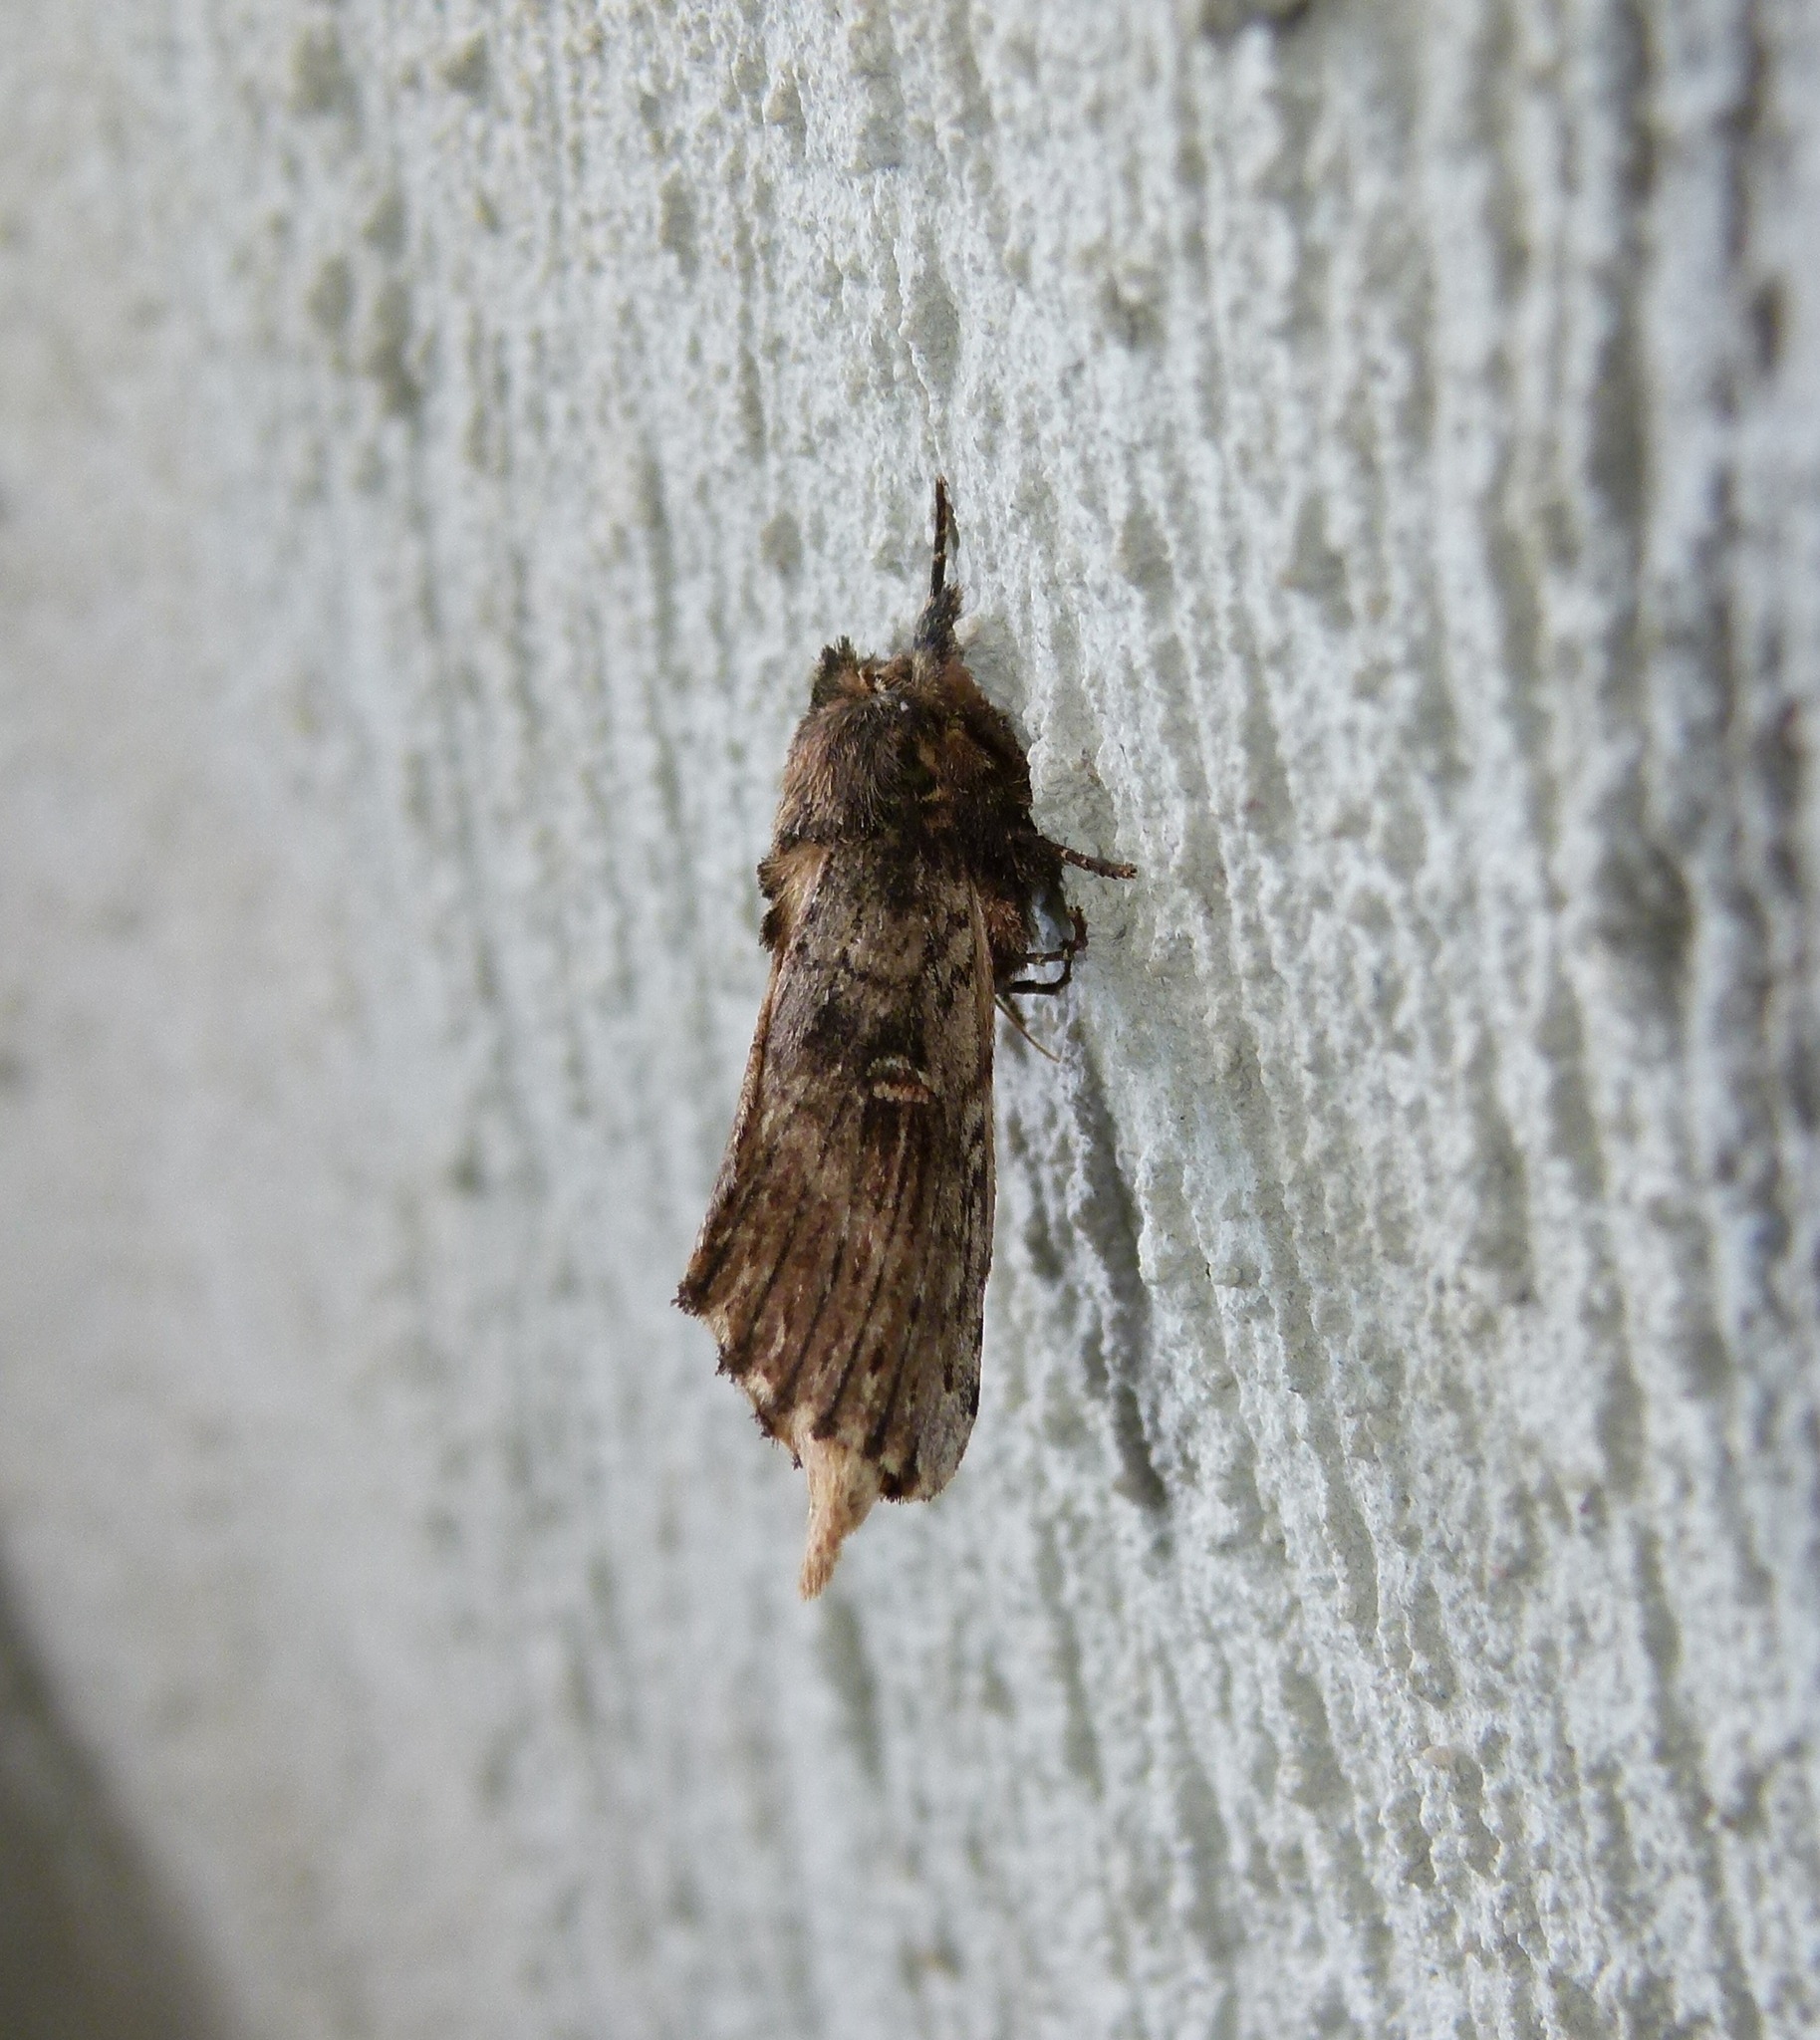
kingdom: Animalia
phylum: Arthropoda
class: Insecta
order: Lepidoptera
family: Notodontidae
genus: Schizura
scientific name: Schizura ipomaeae
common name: Morning-glory prominent
